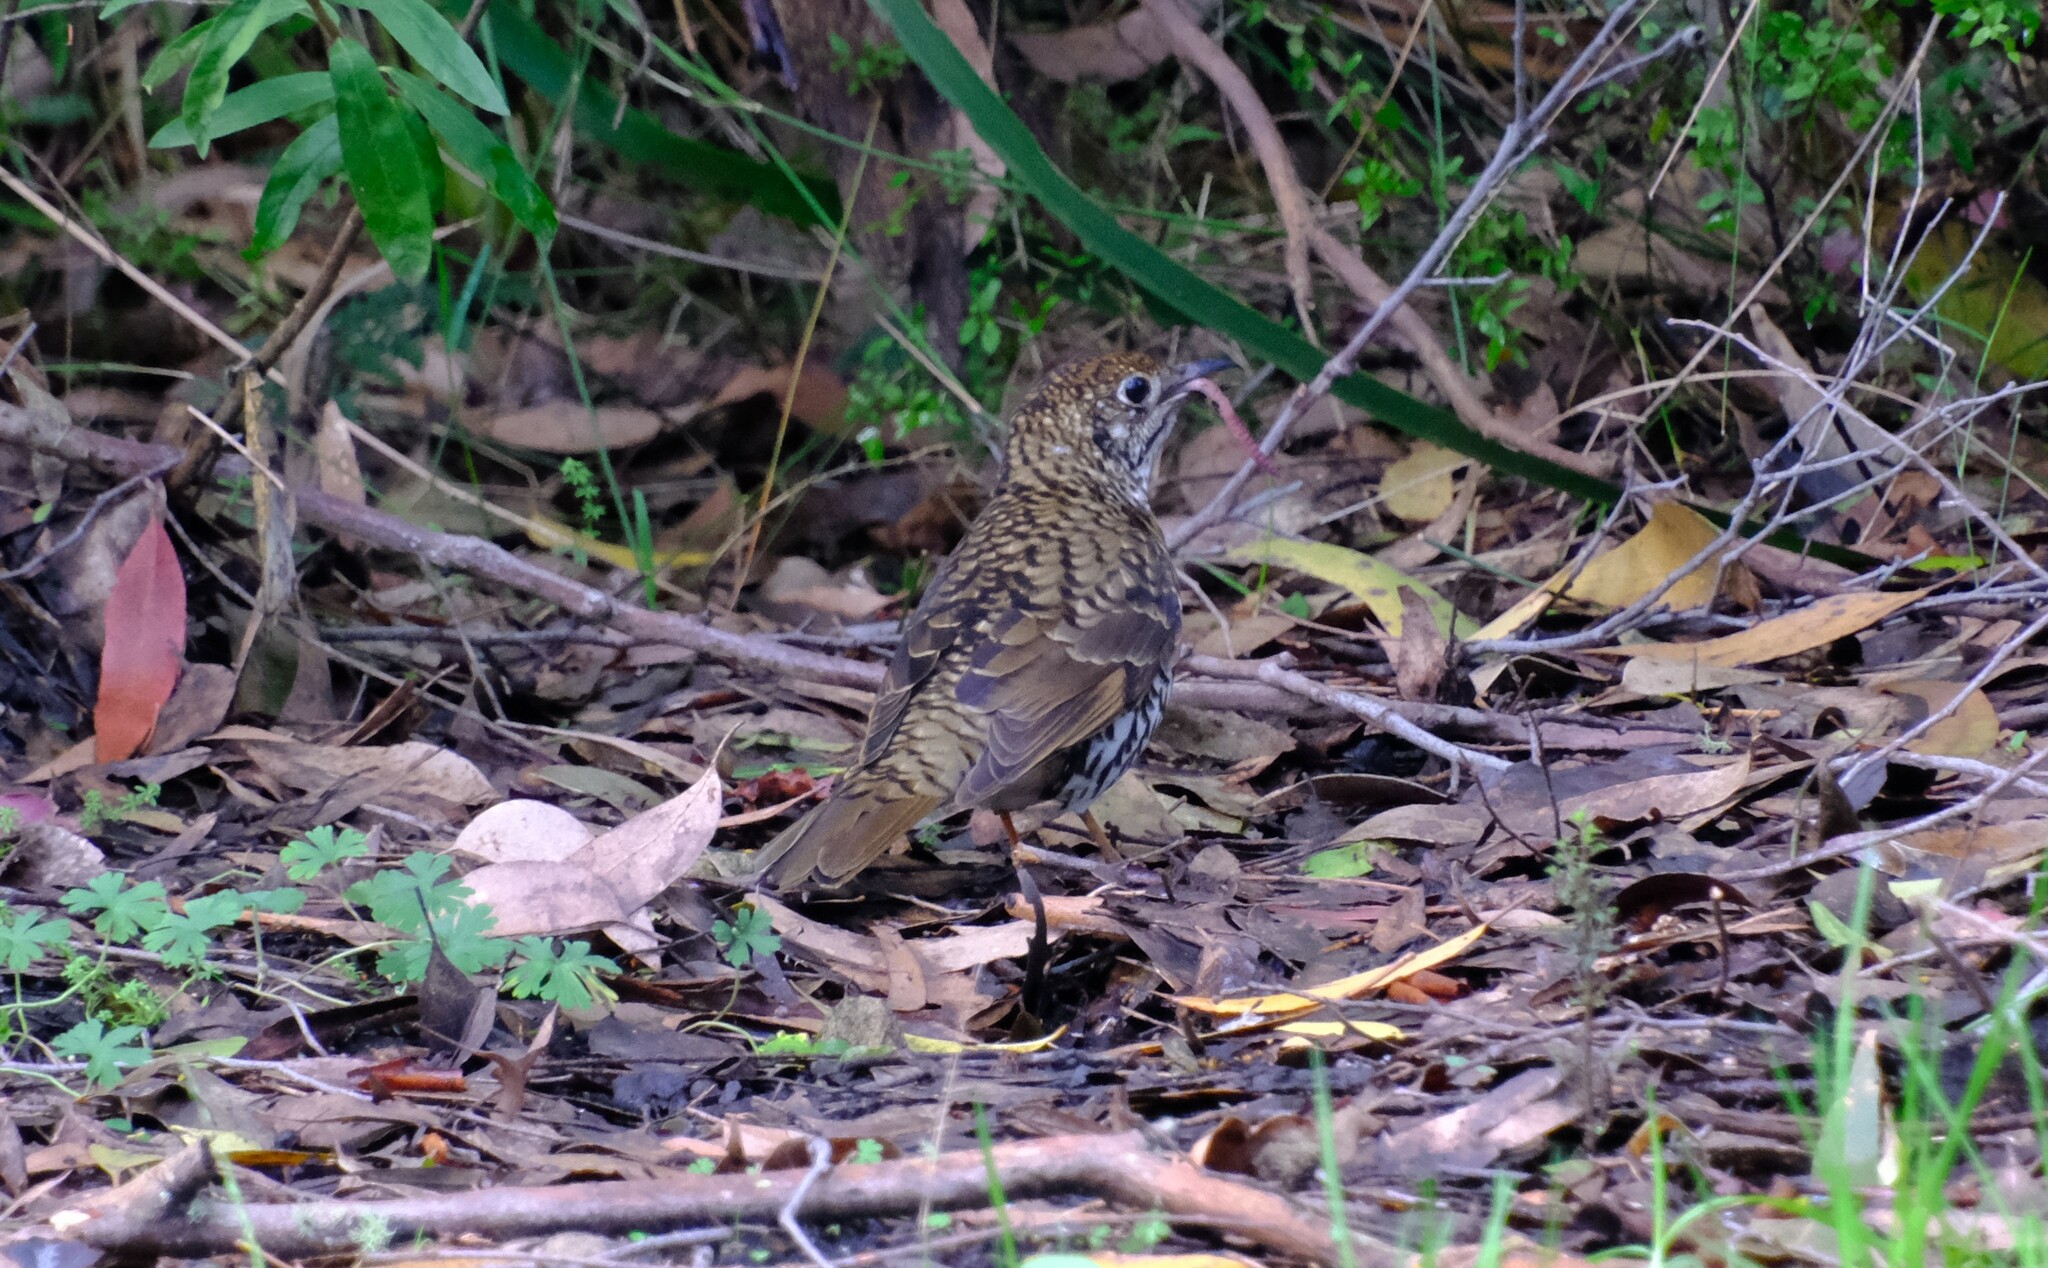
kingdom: Animalia
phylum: Chordata
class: Aves
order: Passeriformes
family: Turdidae
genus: Zoothera
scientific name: Zoothera lunulata
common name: Bassian thrush
